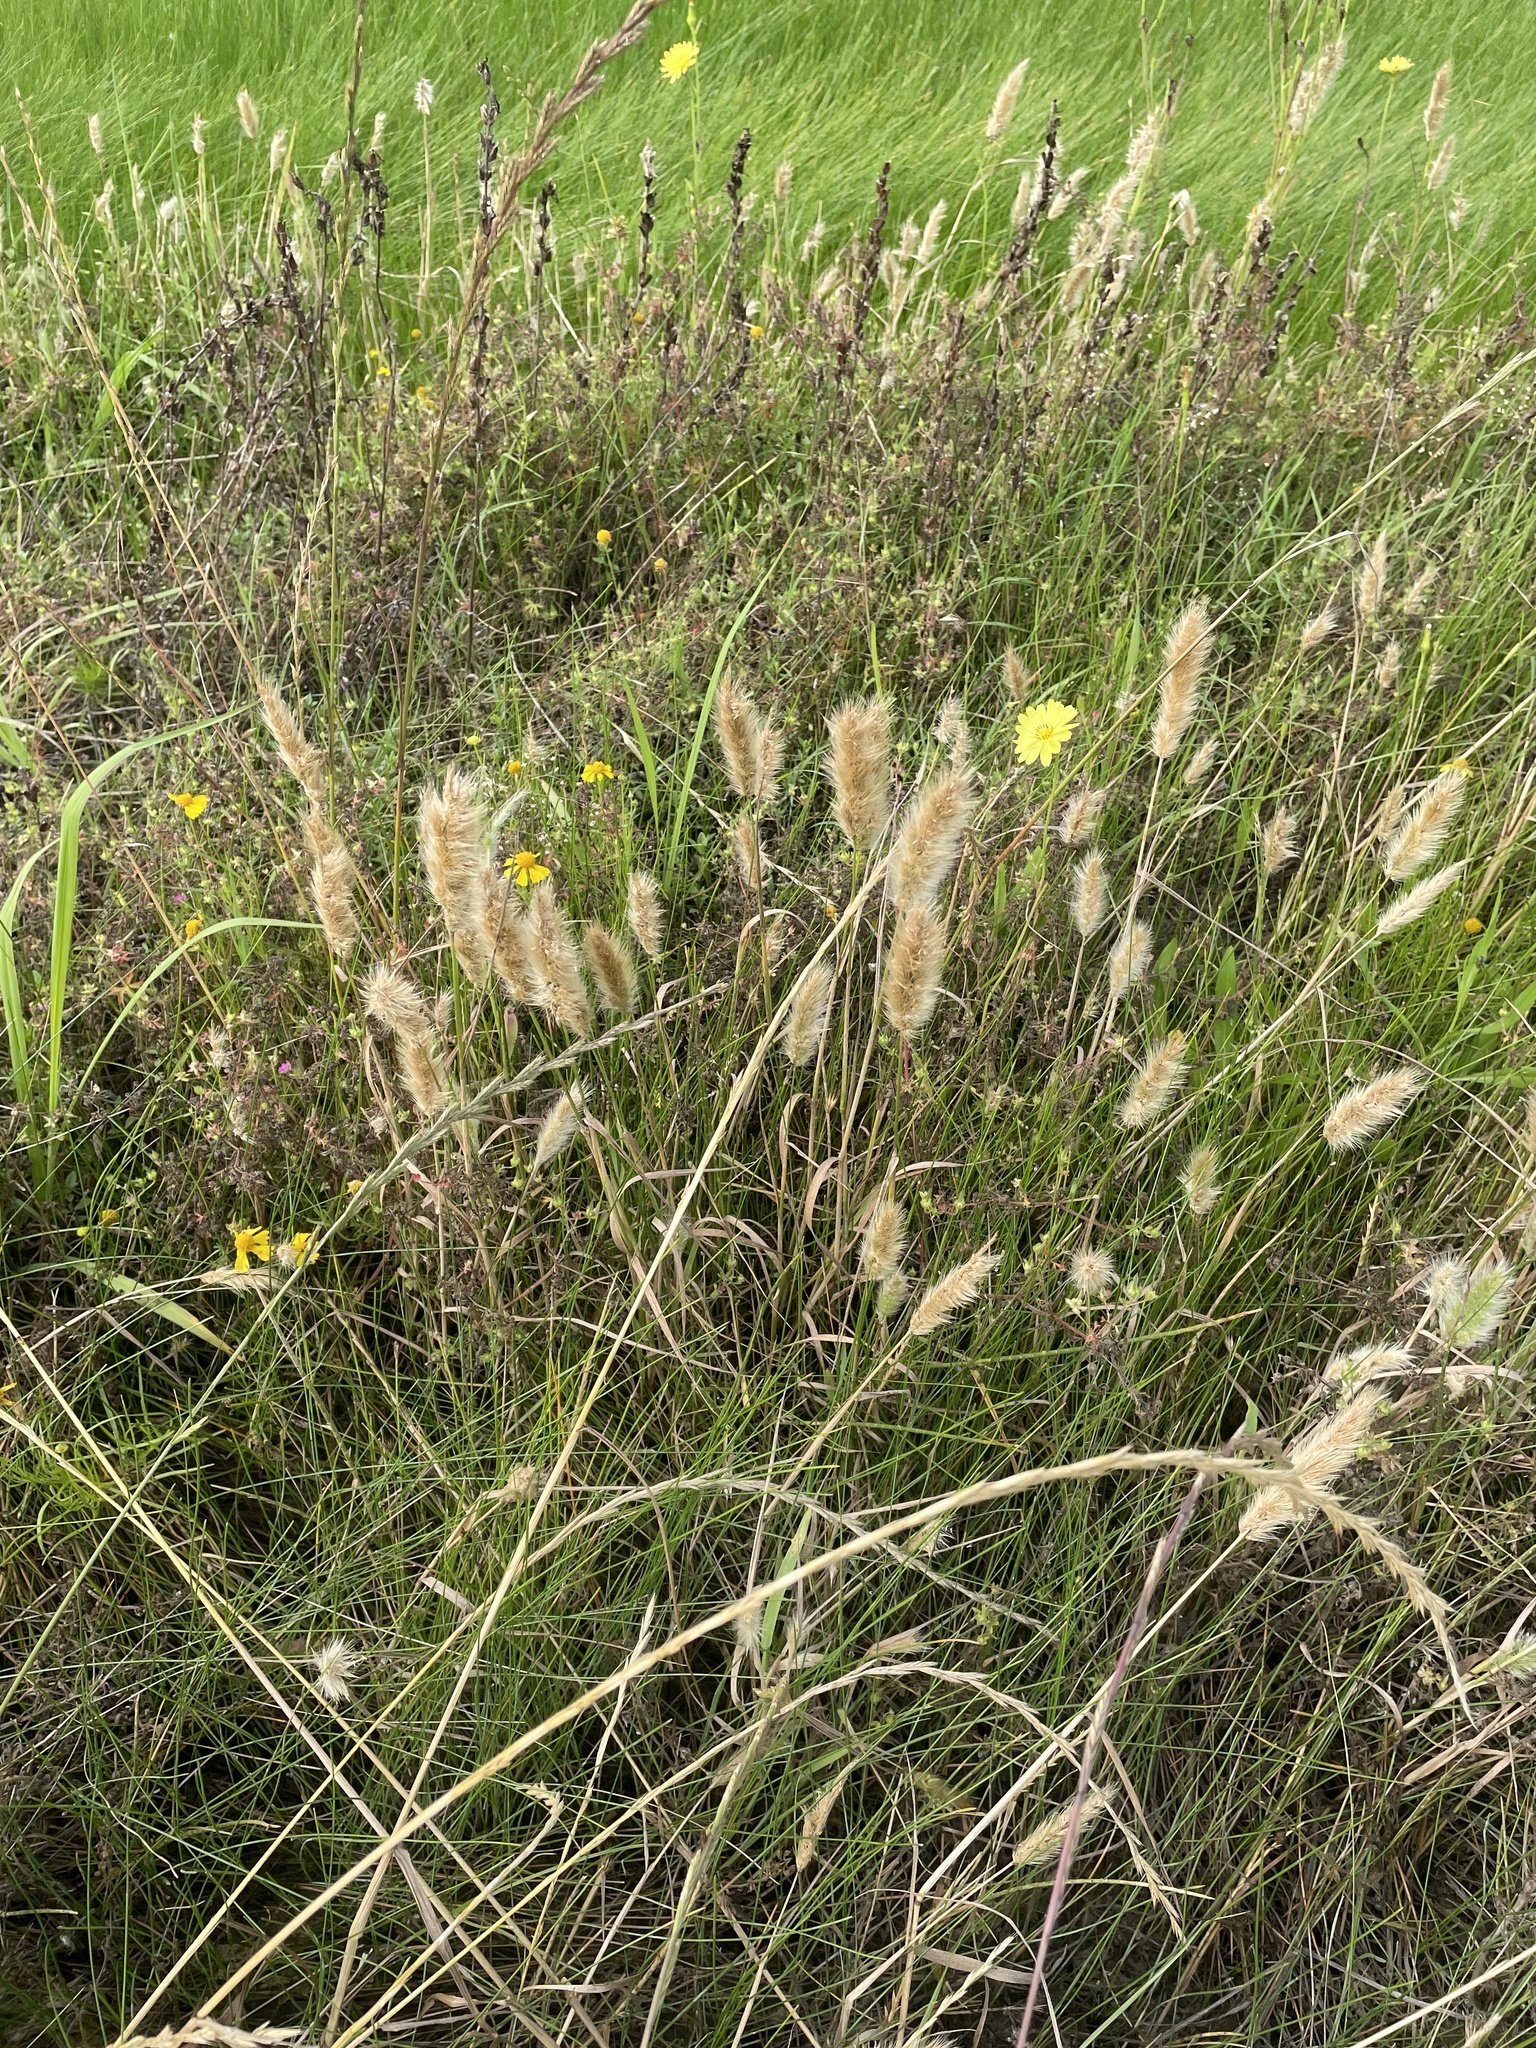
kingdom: Plantae
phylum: Tracheophyta
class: Liliopsida
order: Poales
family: Poaceae
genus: Polypogon
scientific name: Polypogon monspeliensis
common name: Annual rabbitsfoot grass
